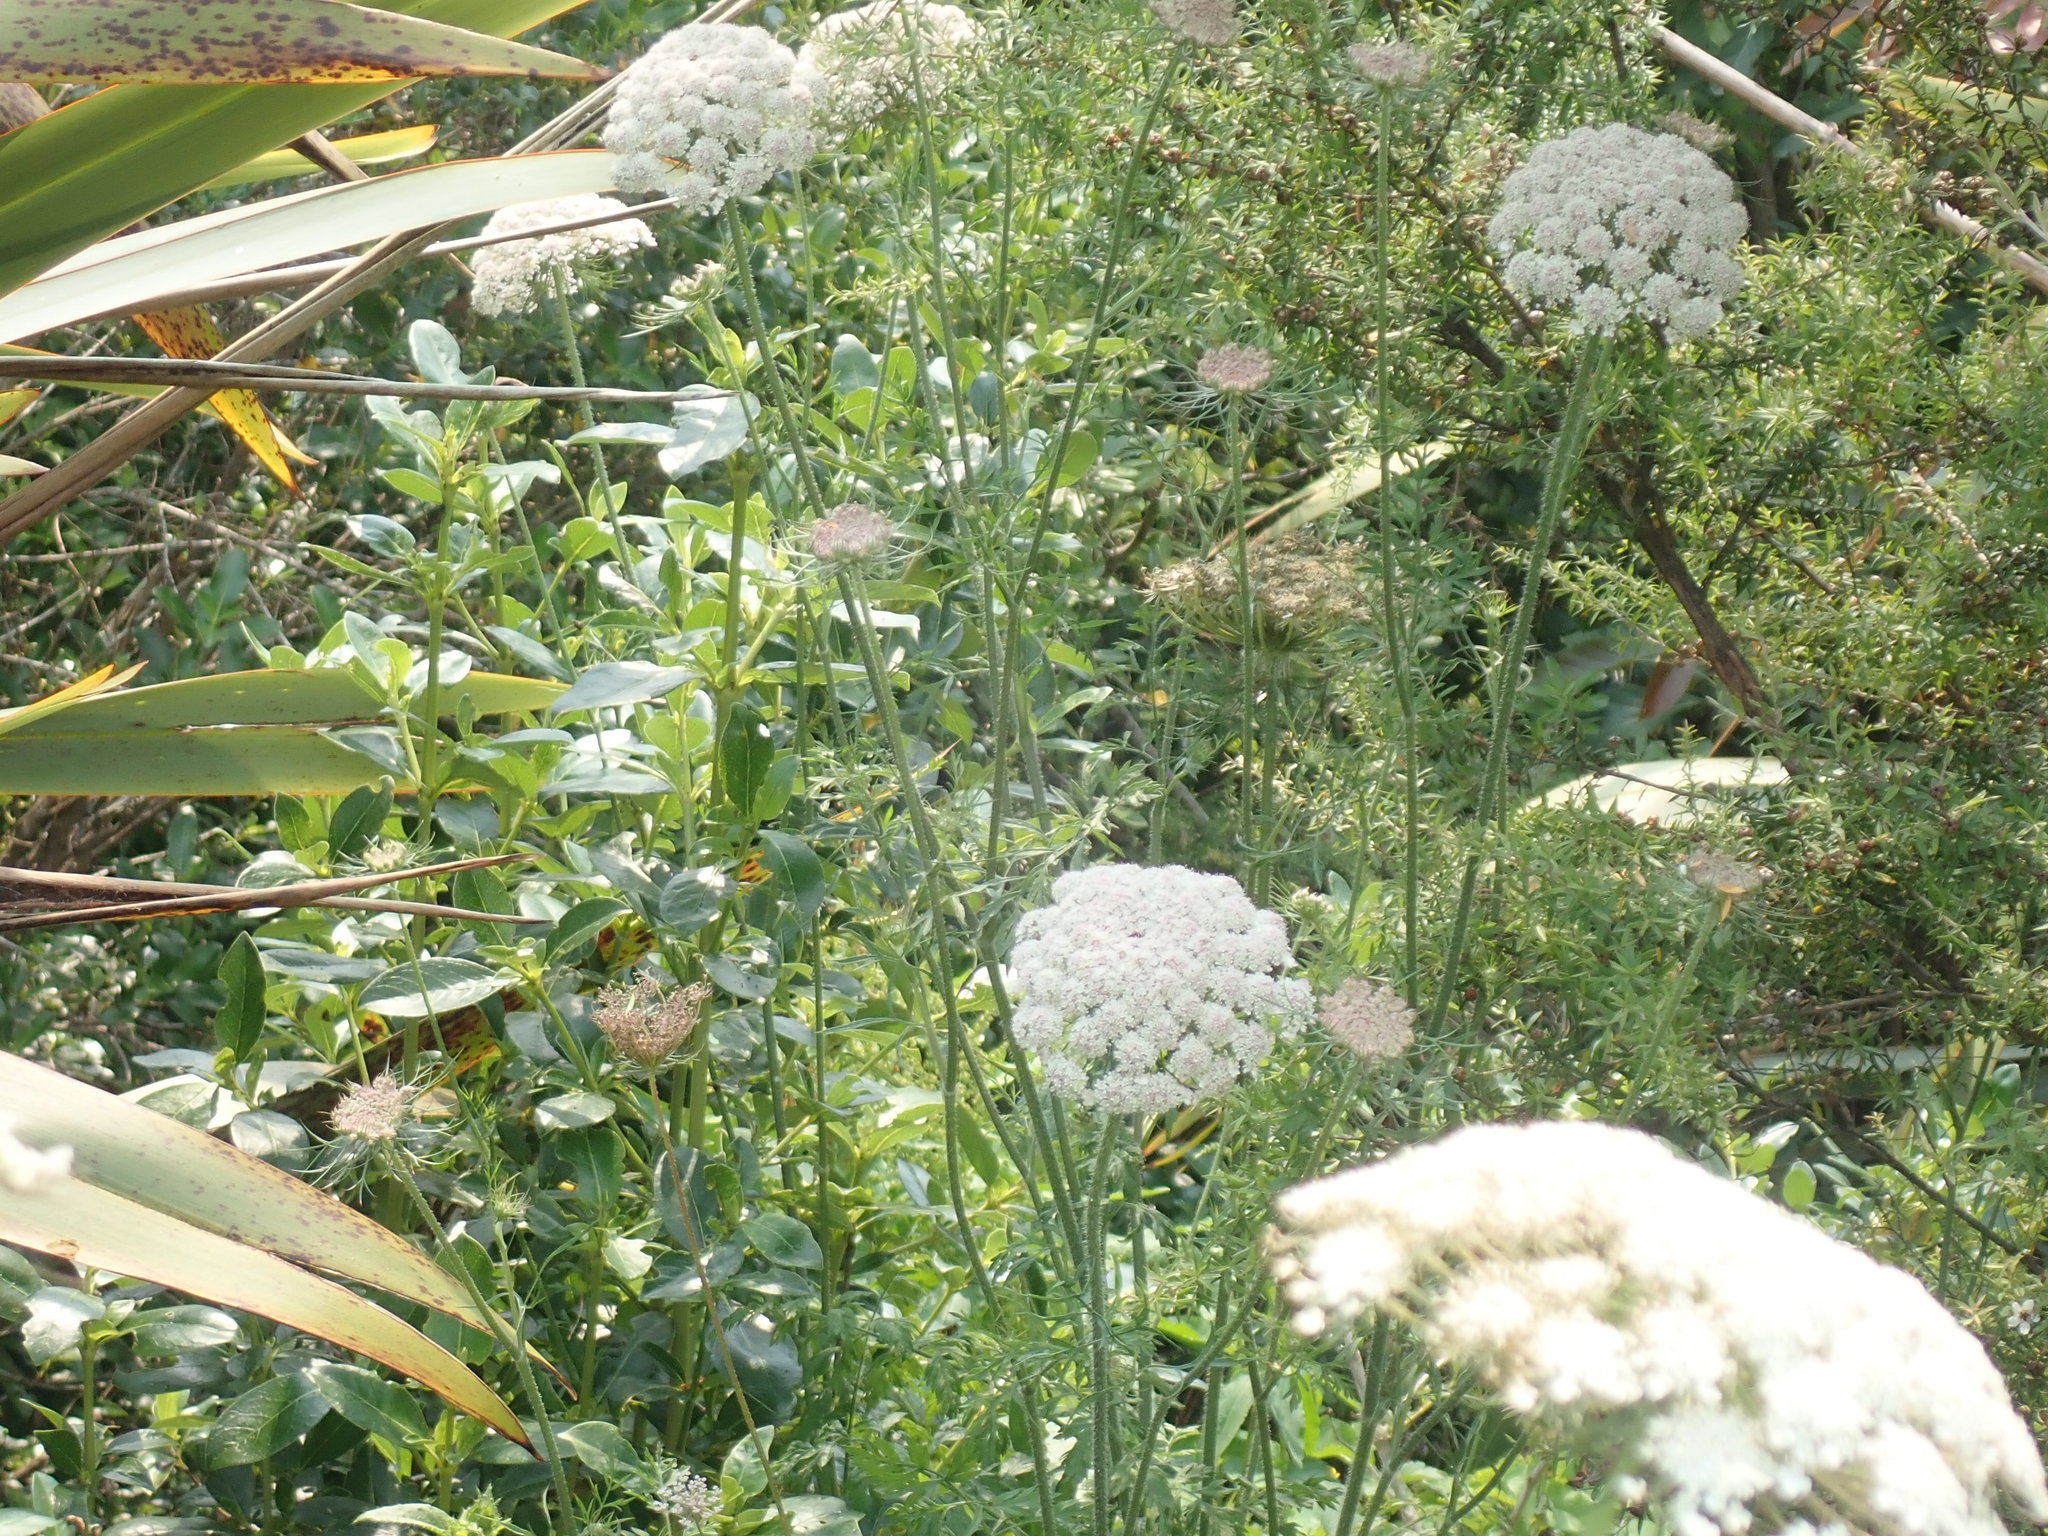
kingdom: Plantae
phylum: Tracheophyta
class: Magnoliopsida
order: Apiales
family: Apiaceae
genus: Daucus
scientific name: Daucus carota
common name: Wild carrot
